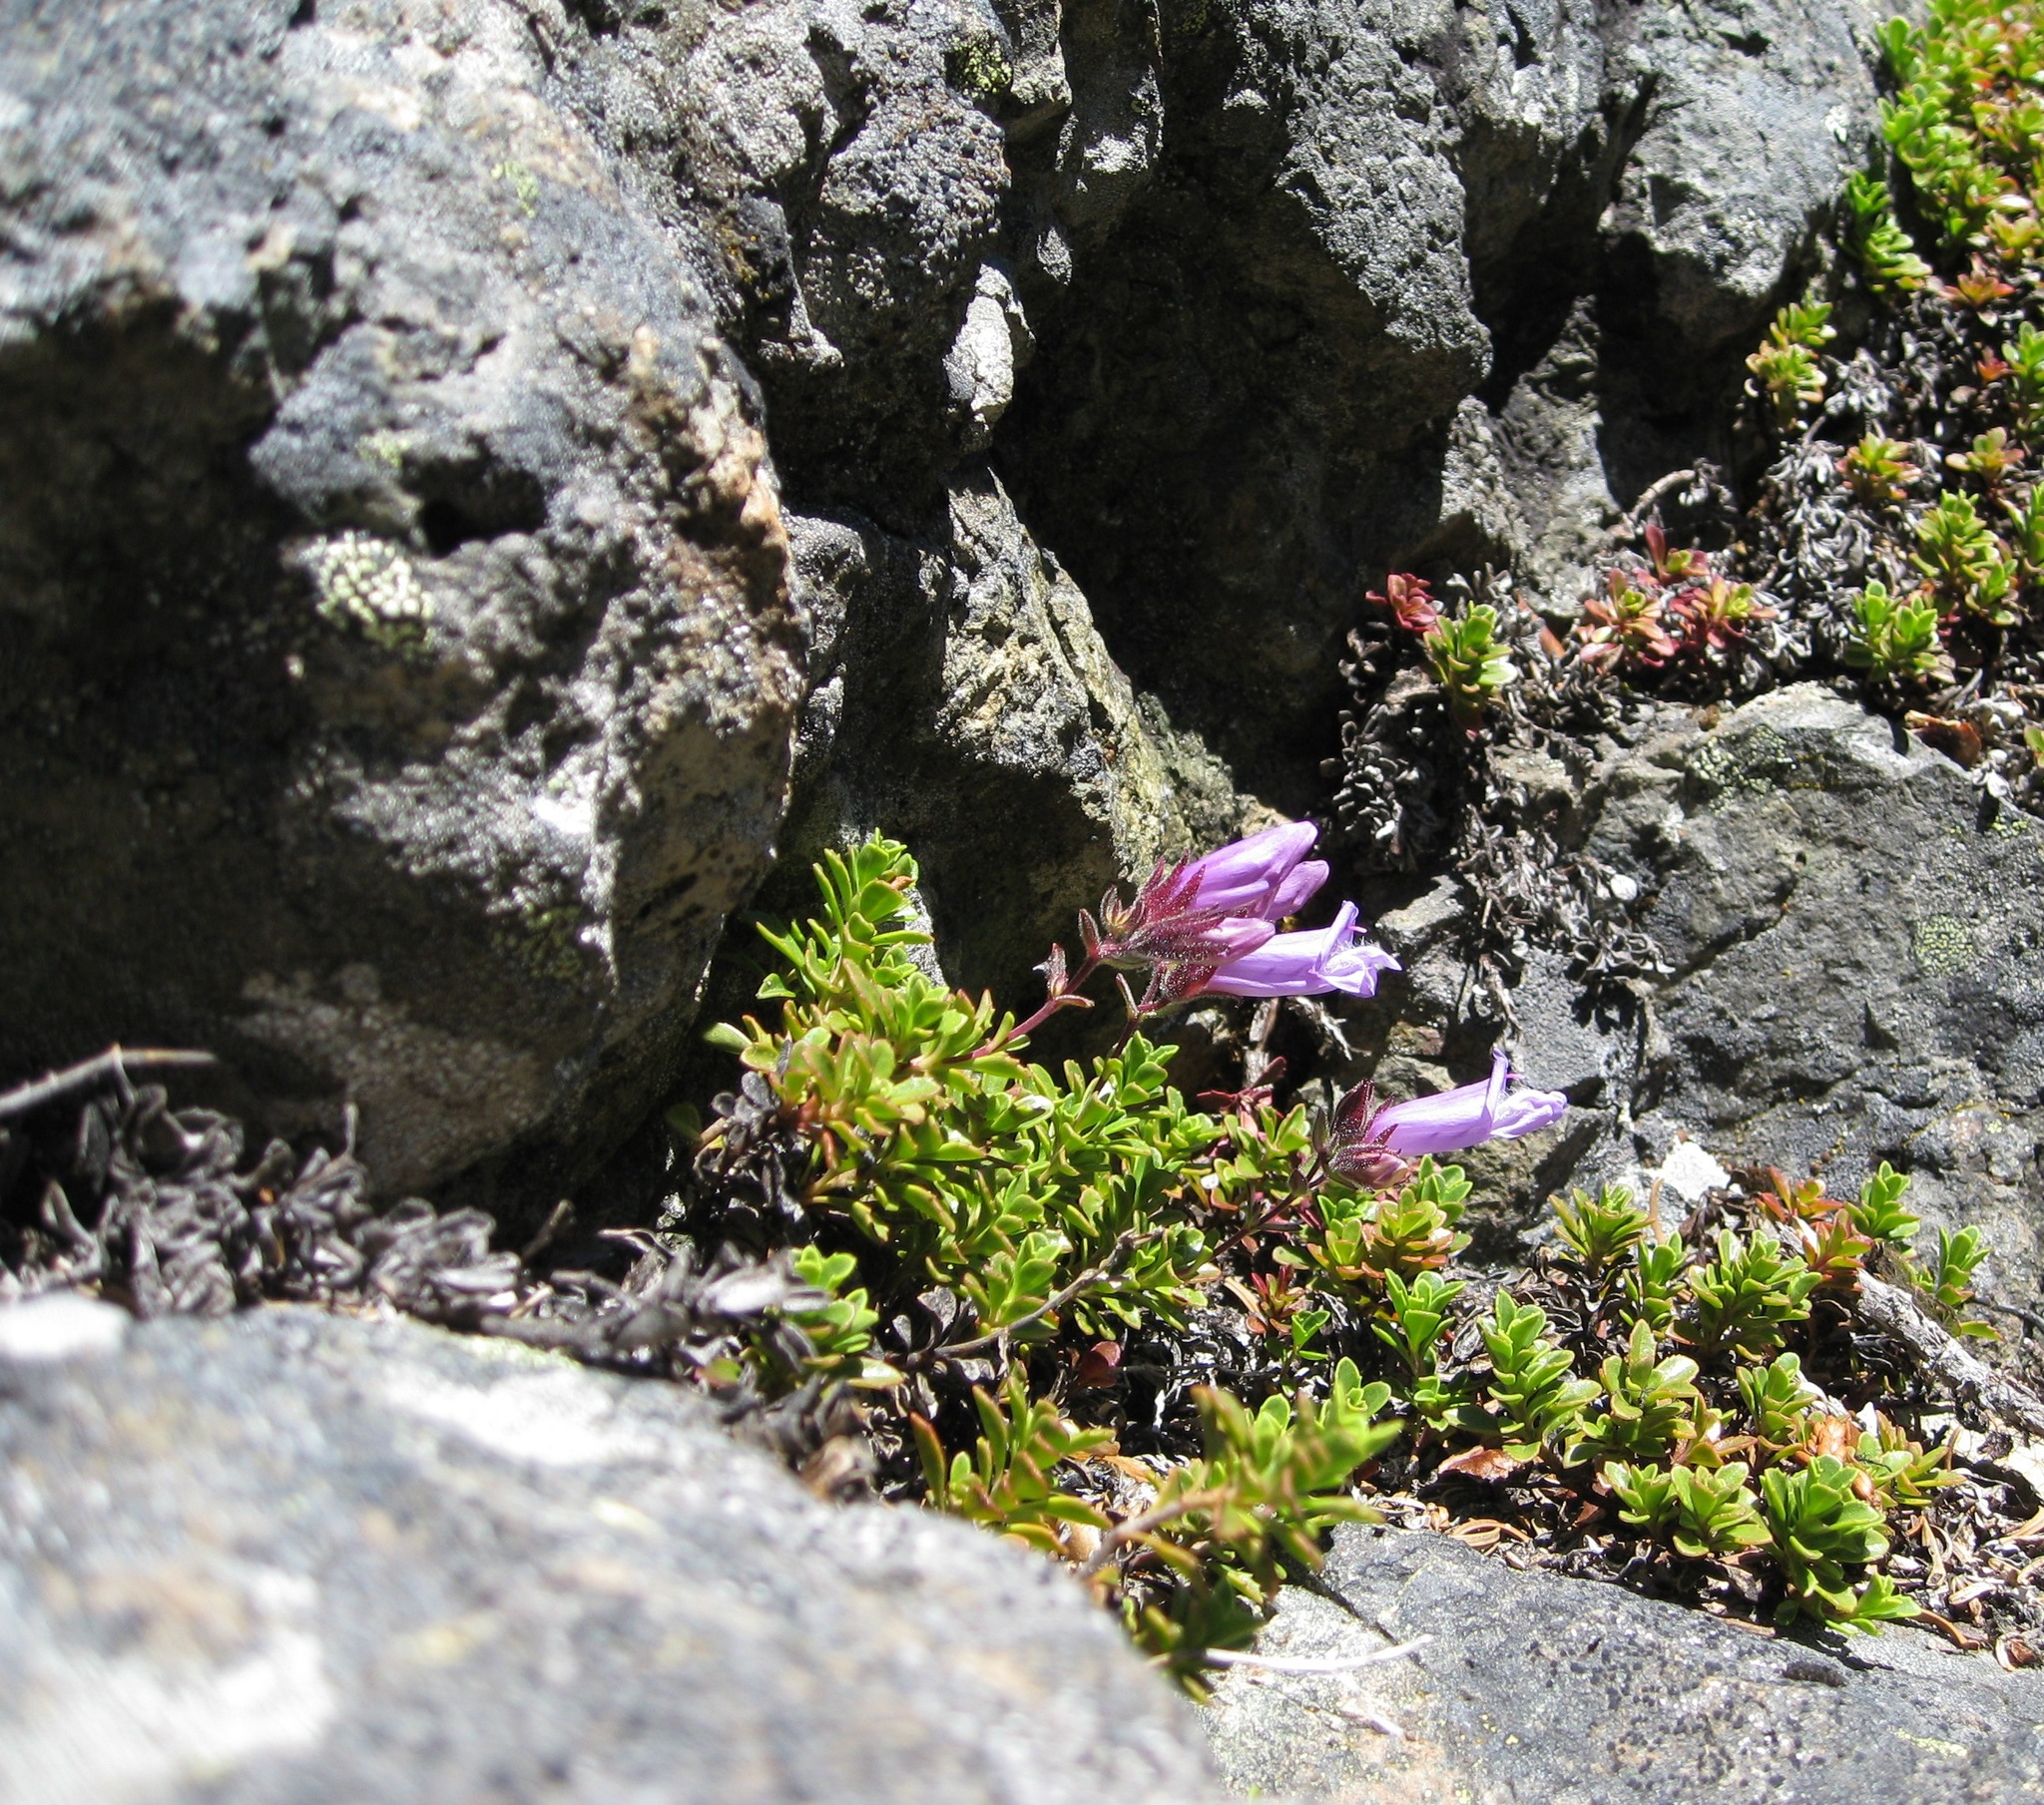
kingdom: Plantae
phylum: Tracheophyta
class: Magnoliopsida
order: Lamiales
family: Plantaginaceae
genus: Penstemon
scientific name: Penstemon davidsonii
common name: Davidson's penstemon
